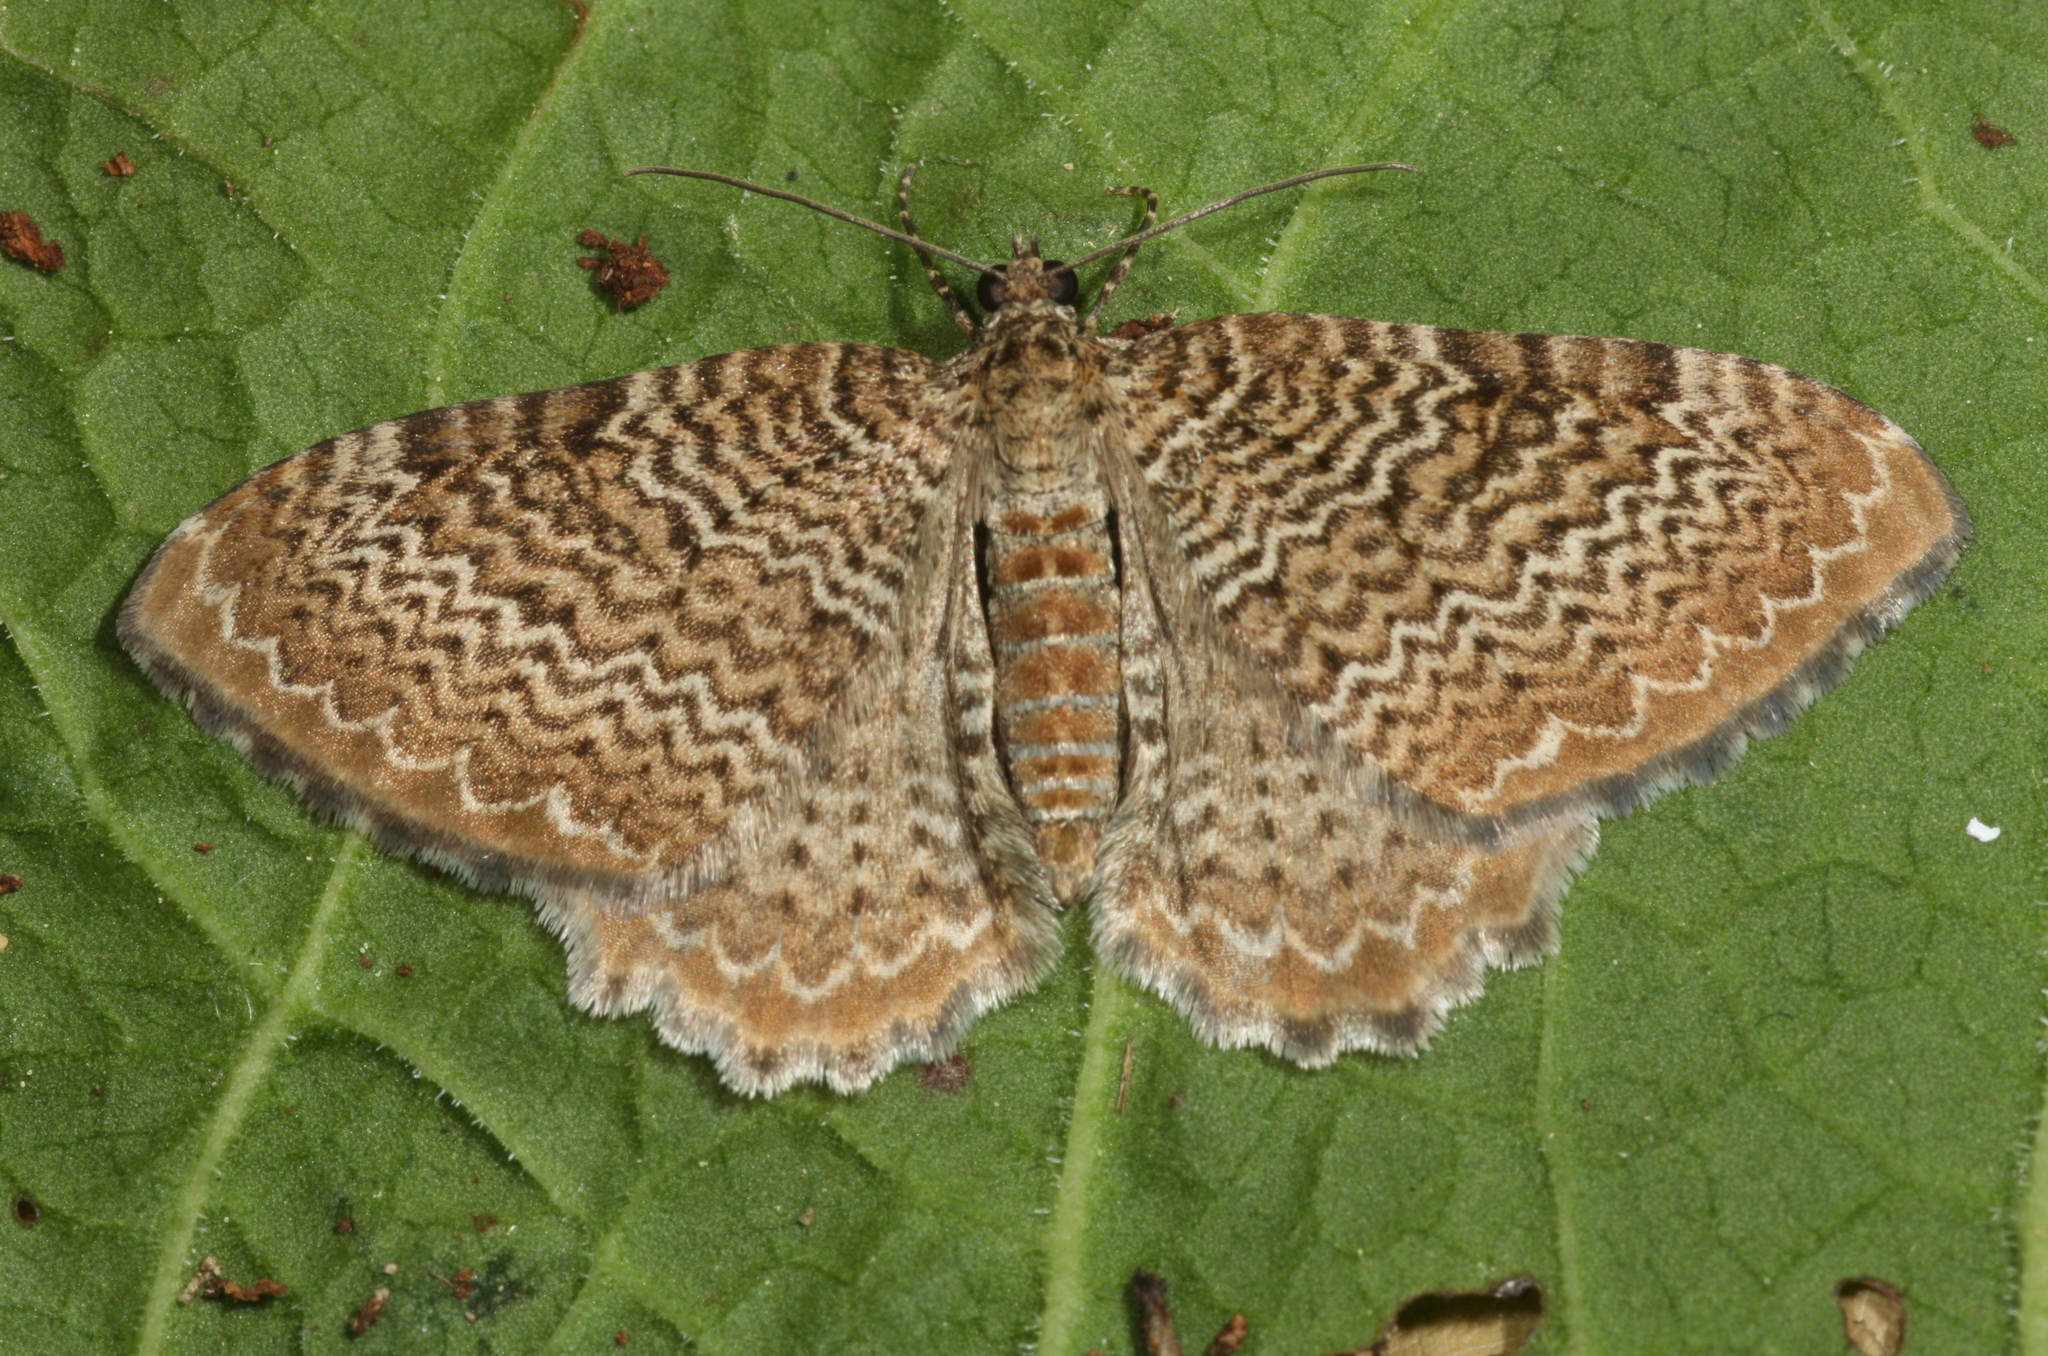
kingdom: Animalia
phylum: Arthropoda
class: Insecta
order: Lepidoptera
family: Geometridae
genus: Rheumaptera
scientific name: Rheumaptera undulata
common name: Scallop shell
